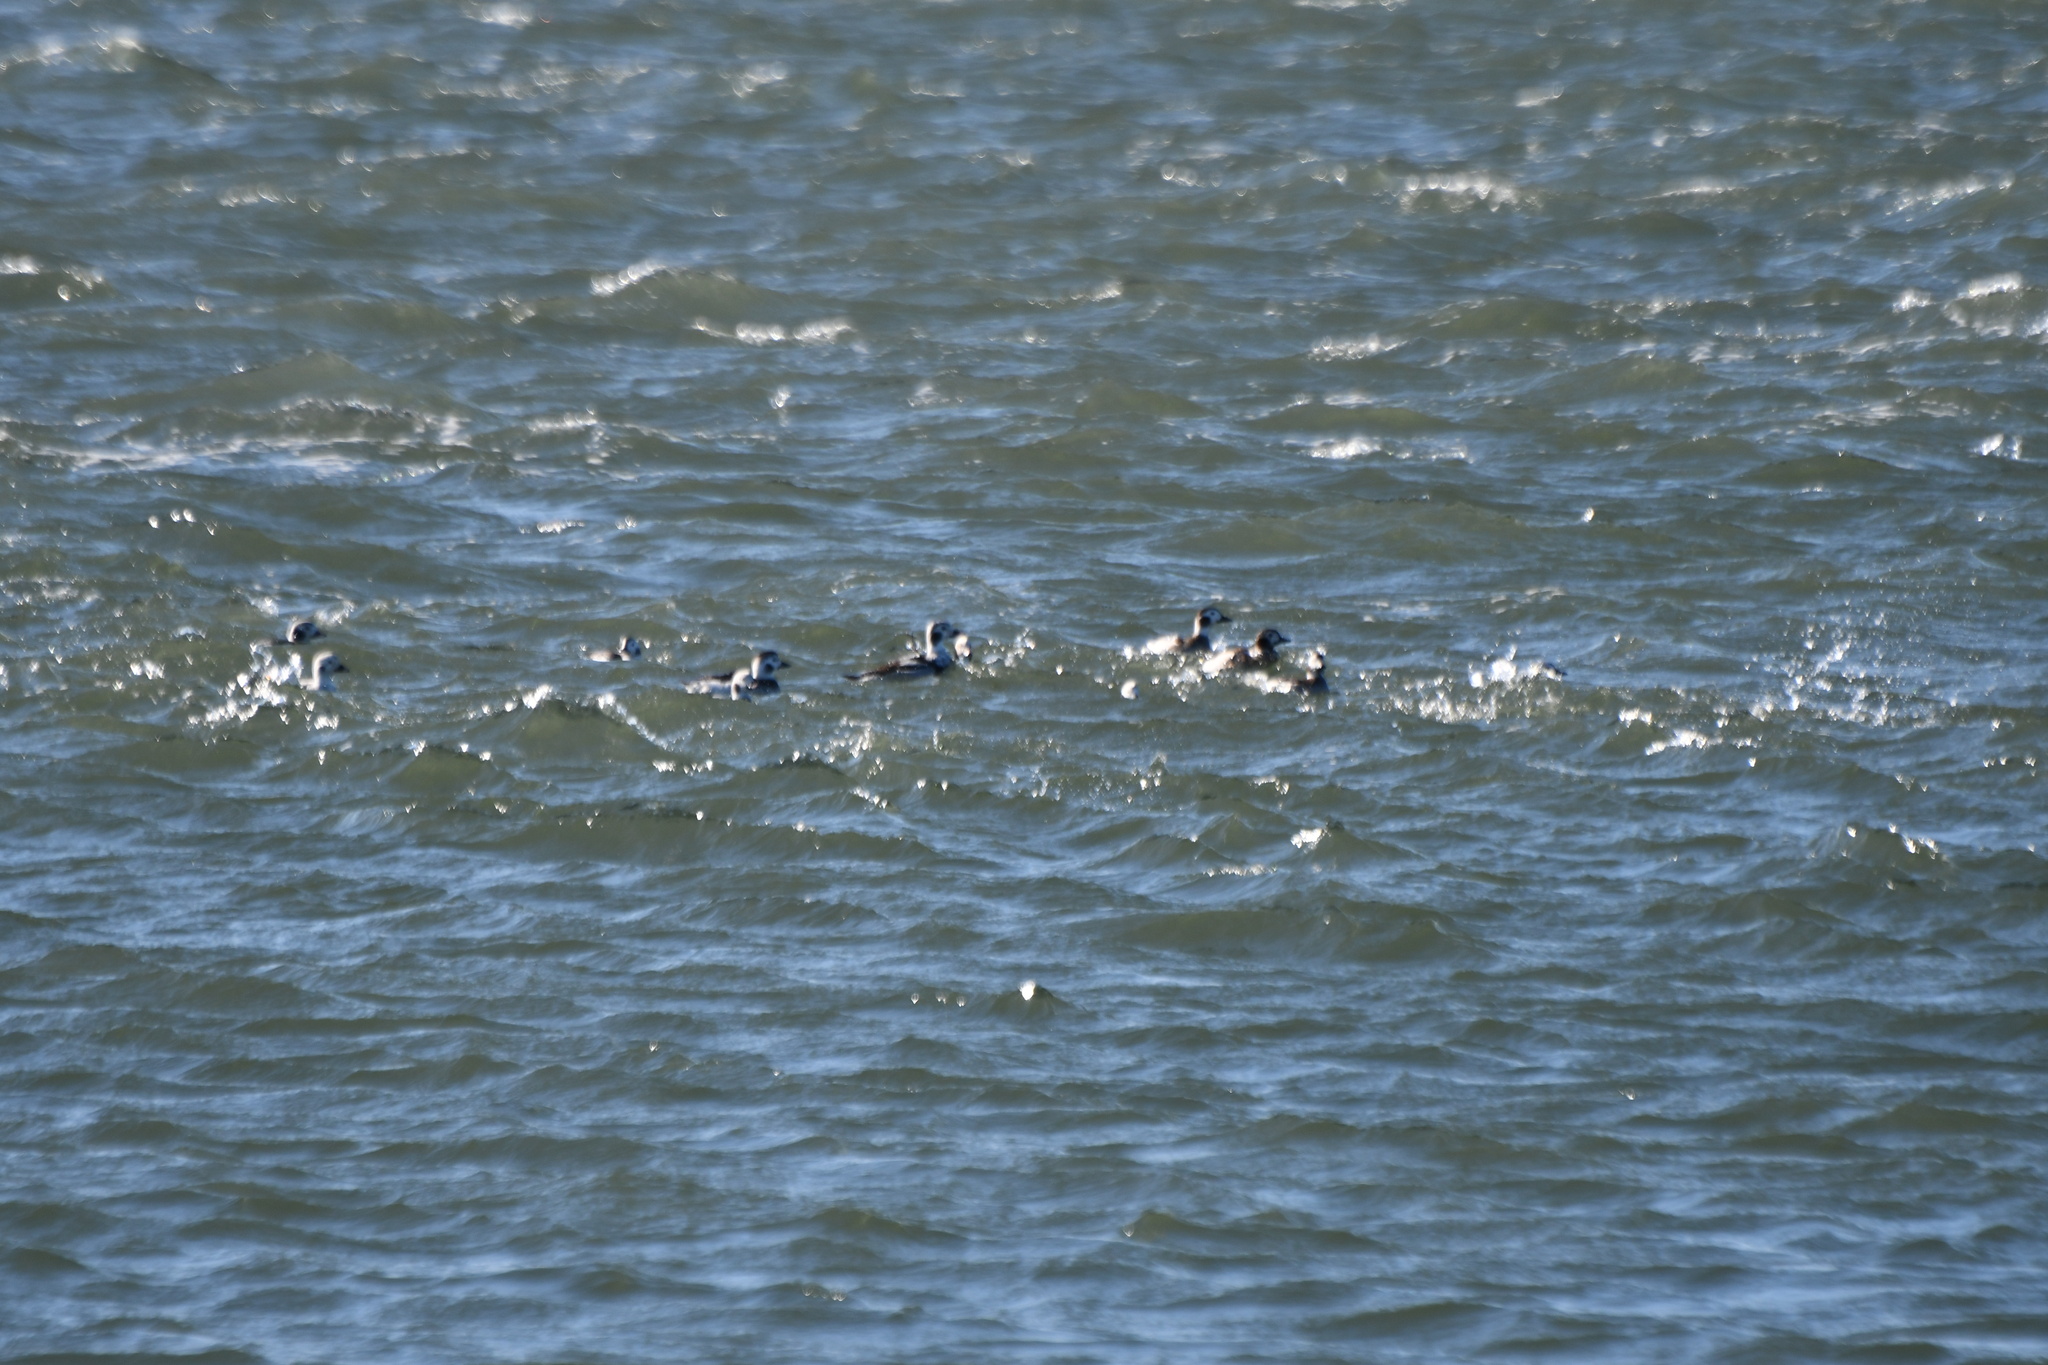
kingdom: Animalia
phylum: Chordata
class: Aves
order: Anseriformes
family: Anatidae
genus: Clangula
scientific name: Clangula hyemalis
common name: Long-tailed duck
